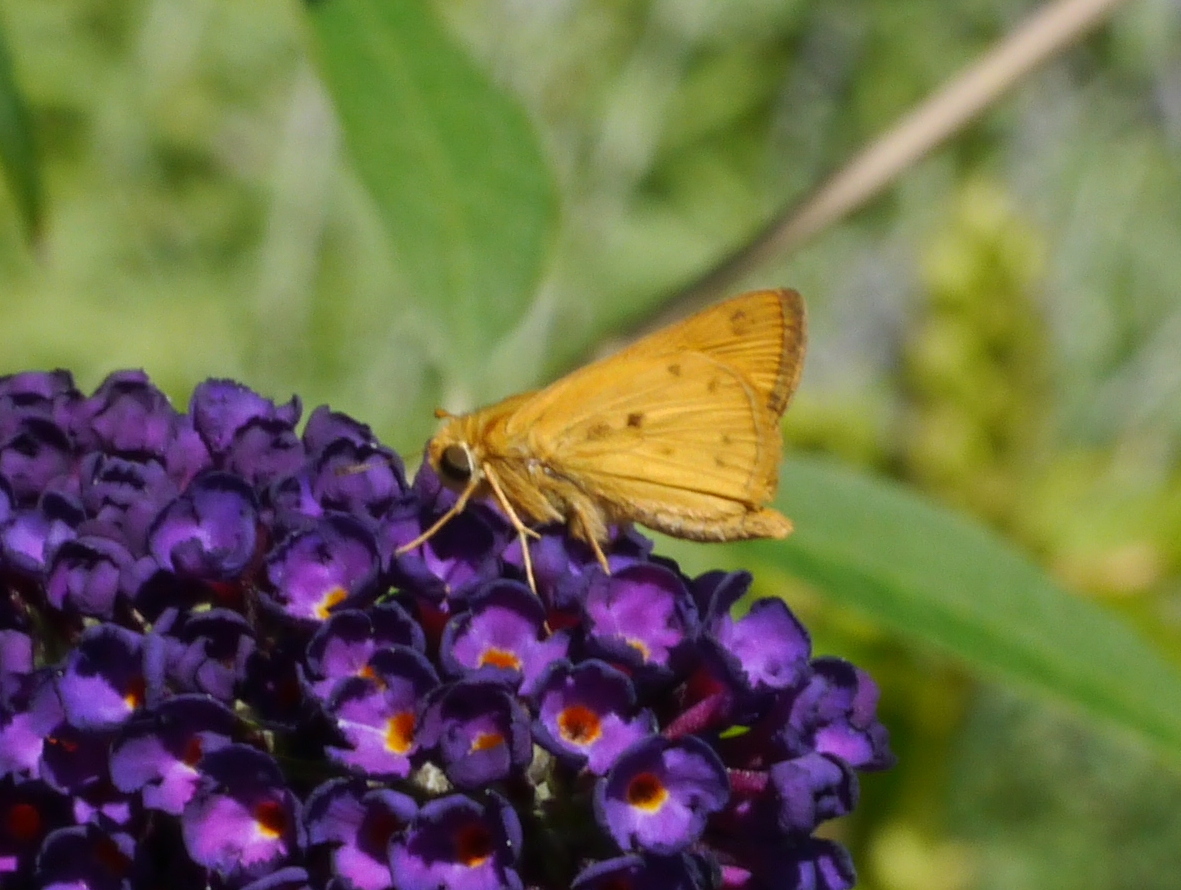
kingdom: Animalia
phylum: Arthropoda
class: Insecta
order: Lepidoptera
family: Hesperiidae
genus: Hylephila
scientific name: Hylephila phyleus
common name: Fiery skipper
